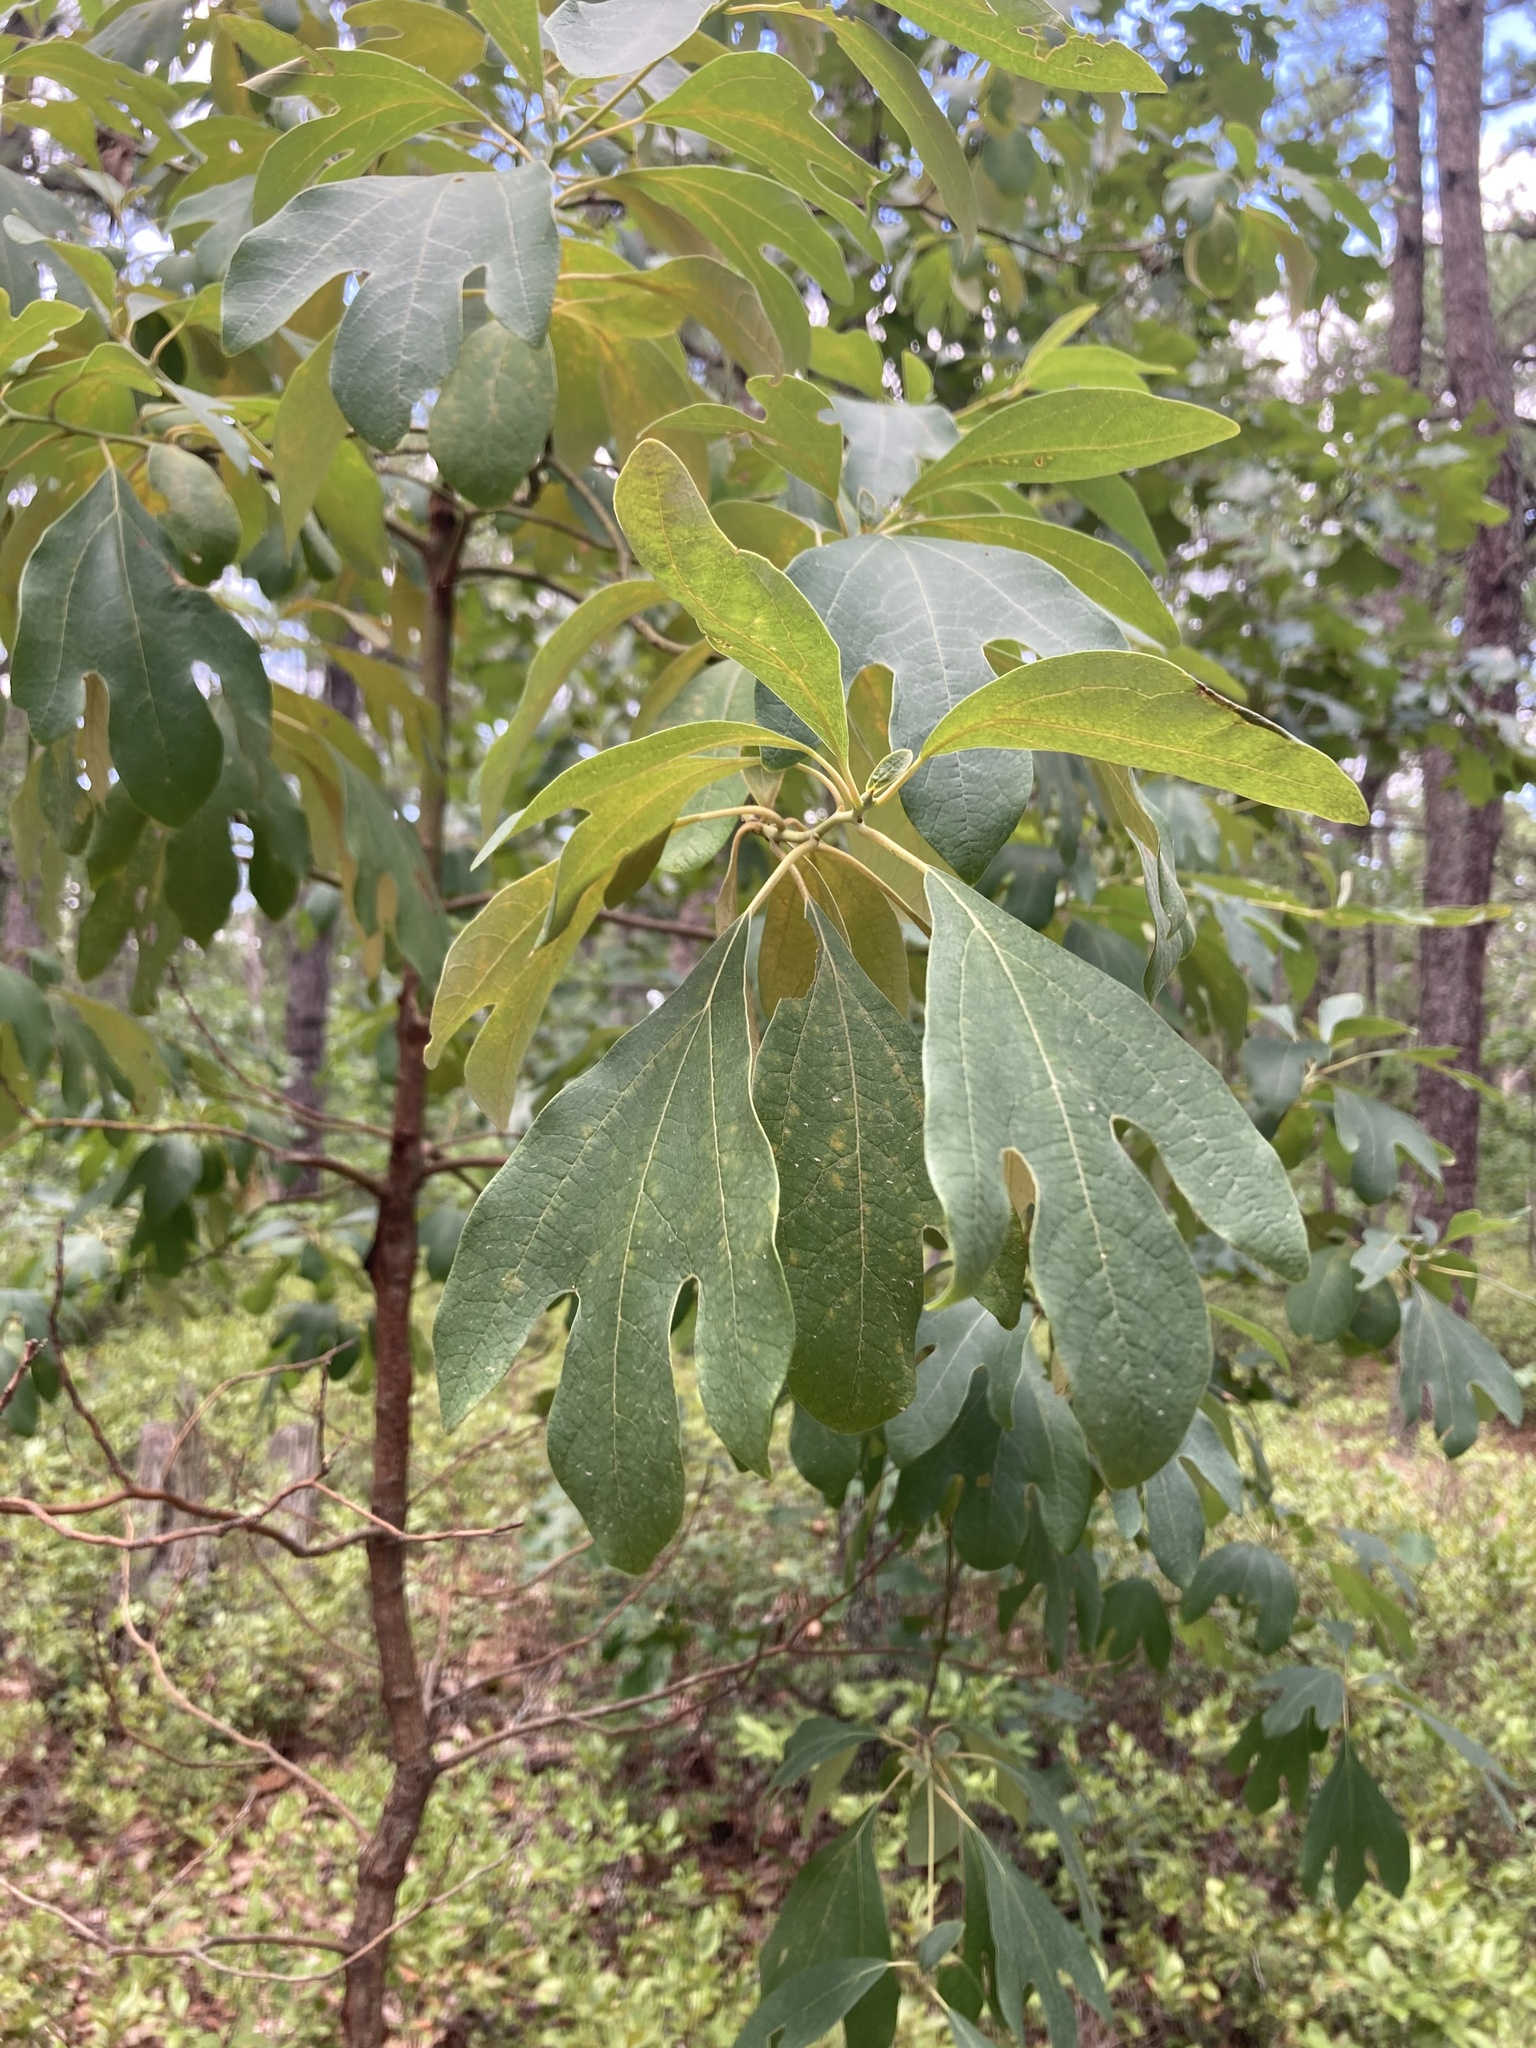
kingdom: Plantae
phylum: Tracheophyta
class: Magnoliopsida
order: Laurales
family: Lauraceae
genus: Sassafras
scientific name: Sassafras albidum
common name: Sassafras
